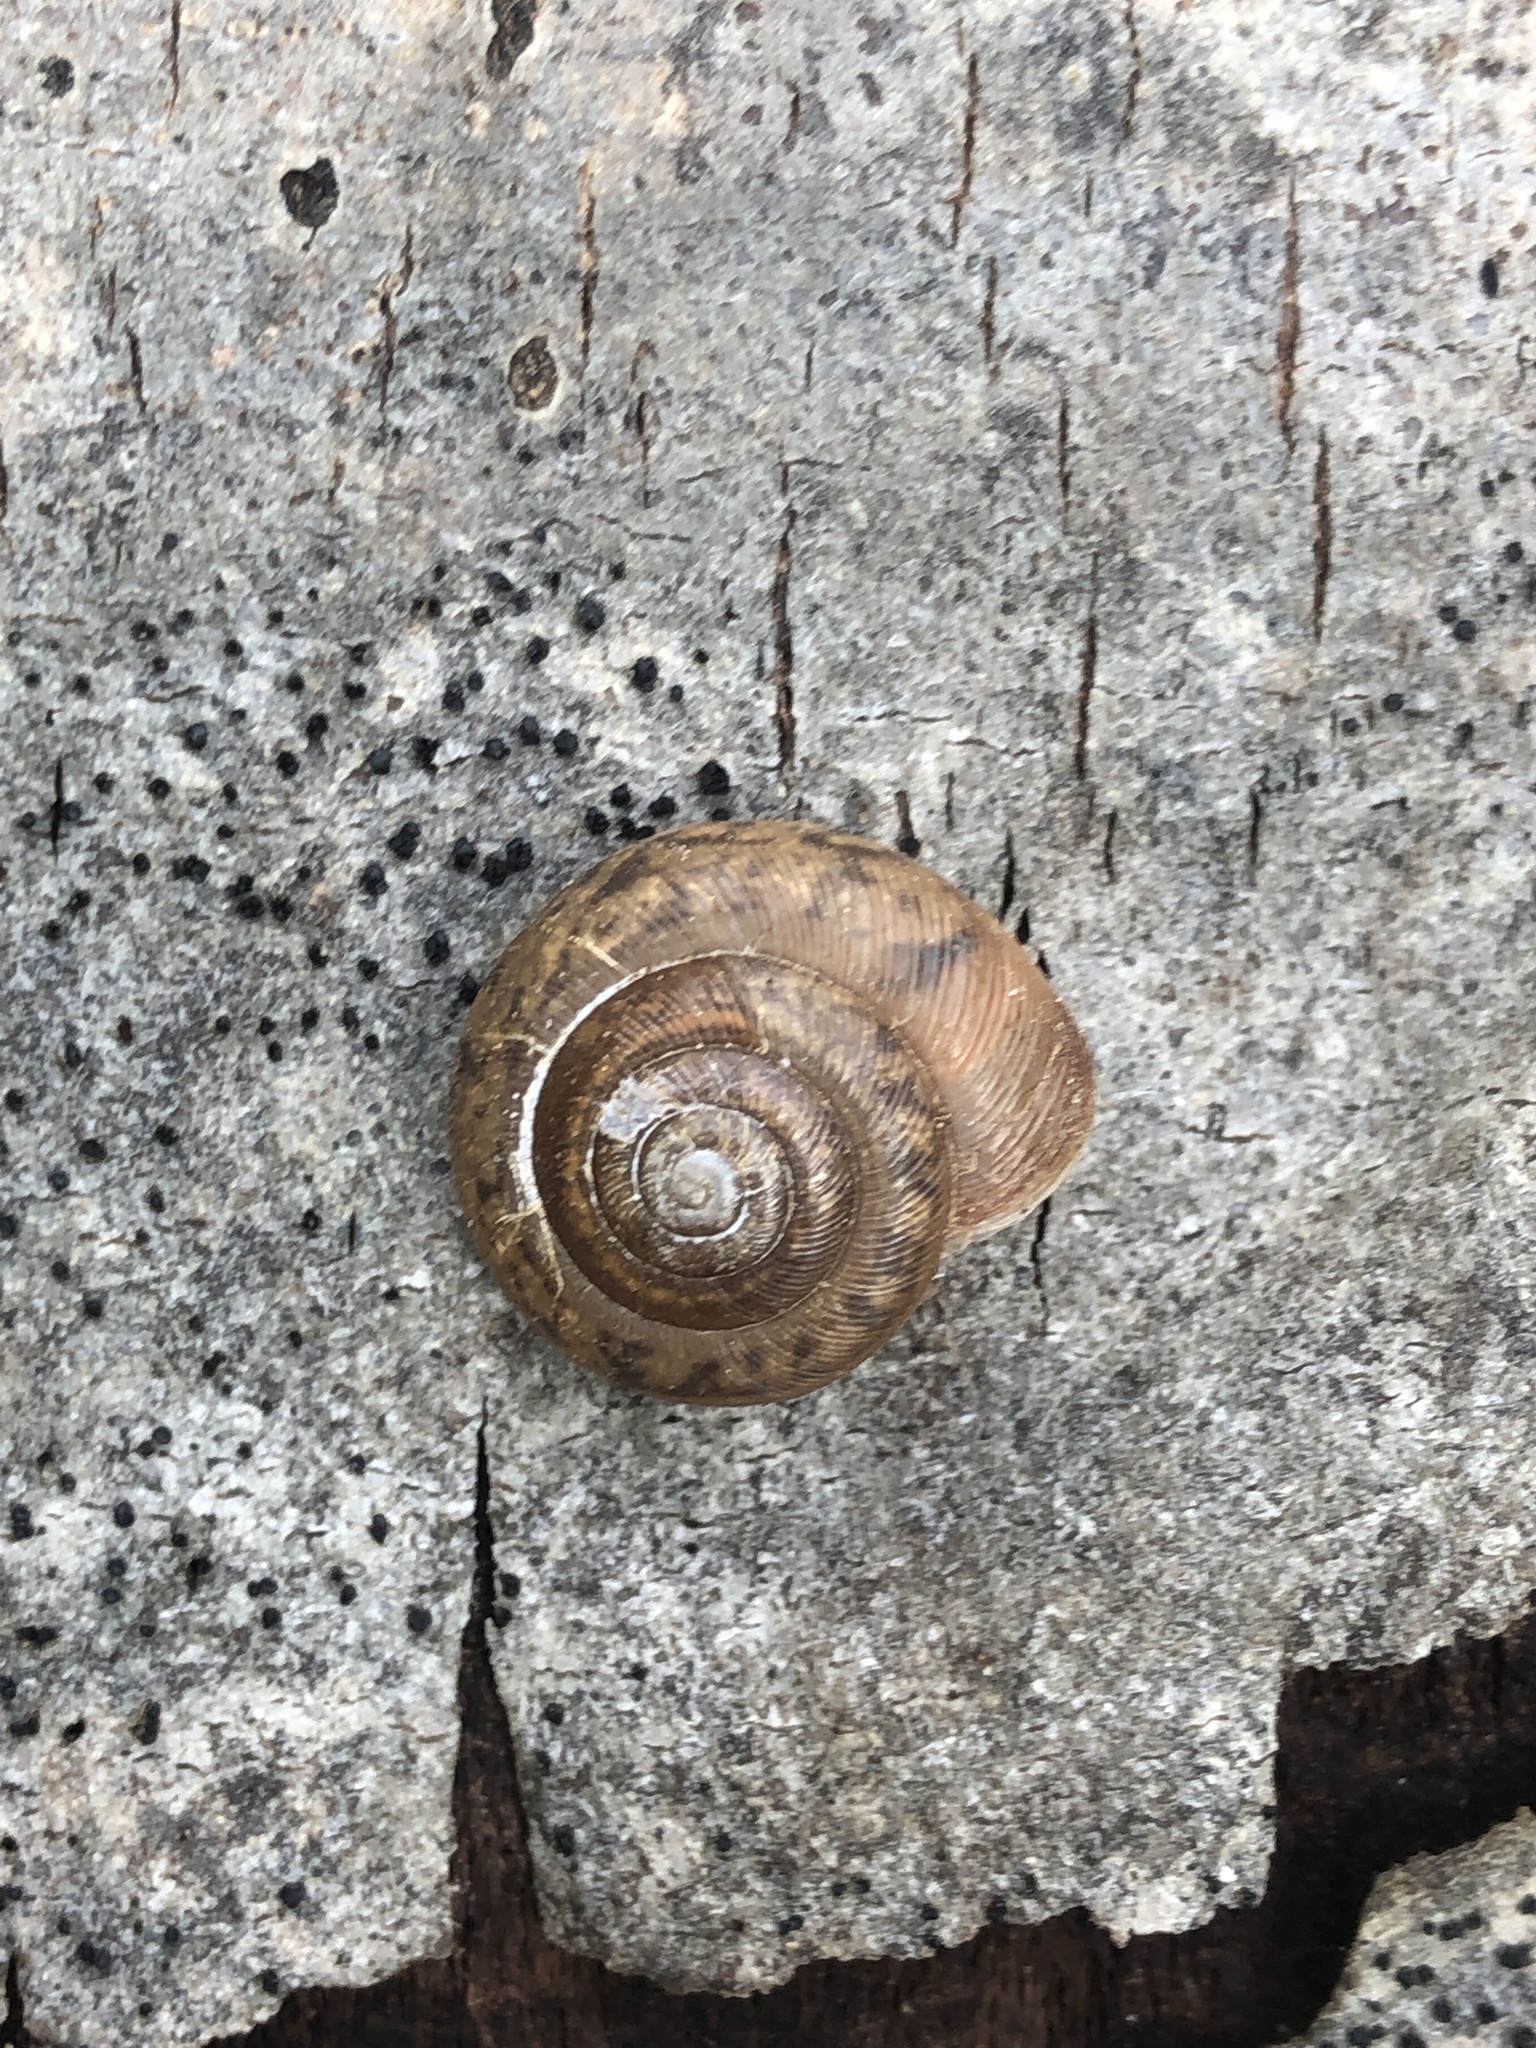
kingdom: Animalia
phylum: Mollusca
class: Gastropoda
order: Stylommatophora
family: Discidae
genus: Anguispira
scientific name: Anguispira alternata
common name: Flamed tigersnail
